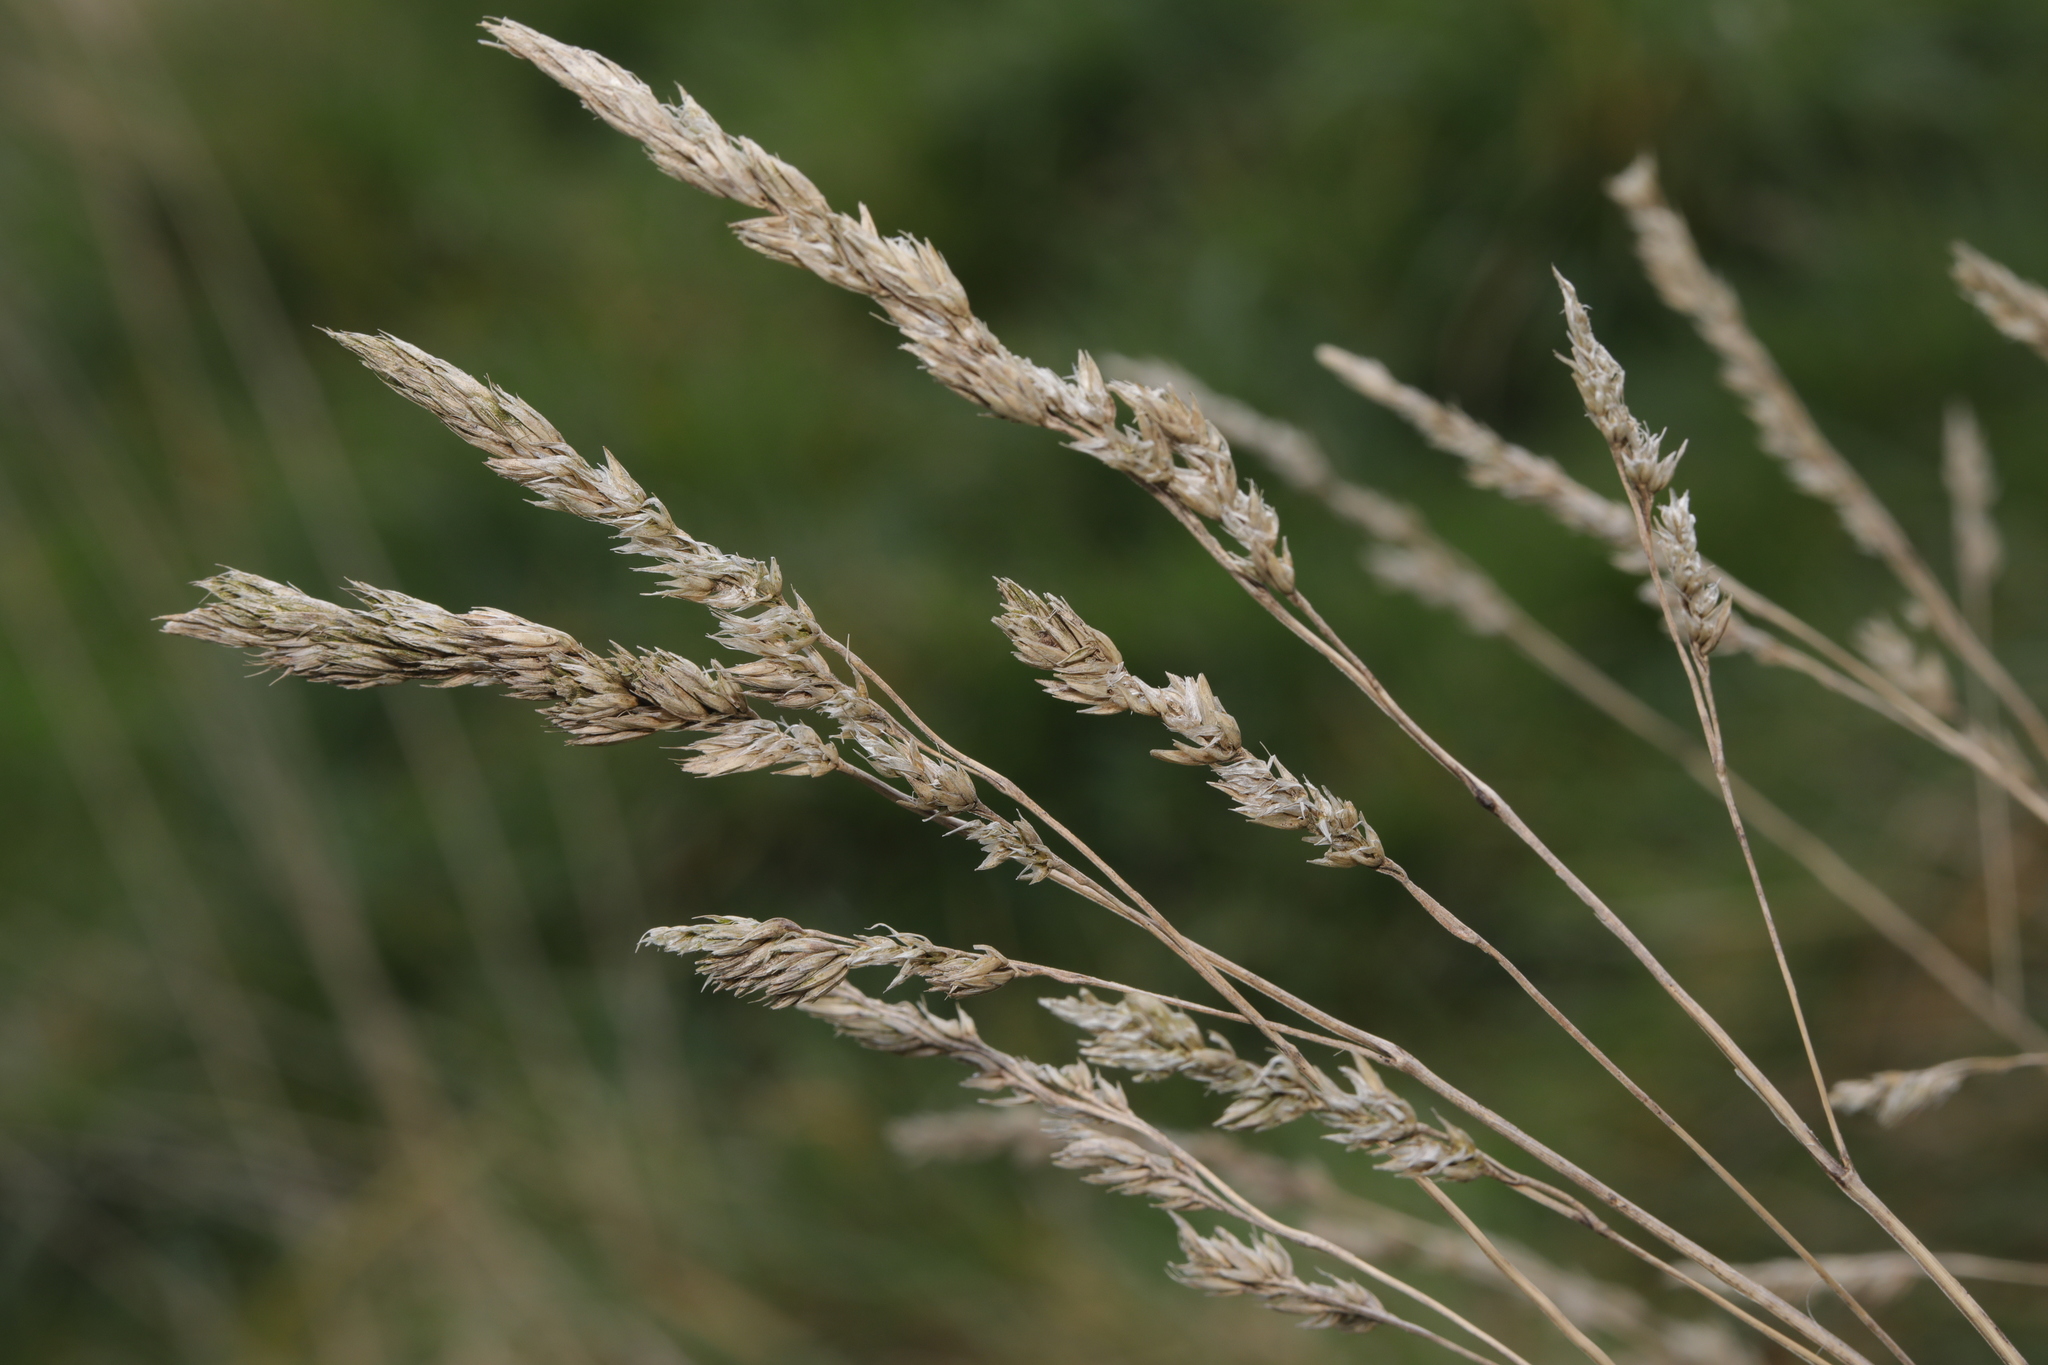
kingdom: Plantae
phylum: Tracheophyta
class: Liliopsida
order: Poales
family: Poaceae
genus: Dactylis
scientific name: Dactylis glomerata
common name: Orchardgrass
